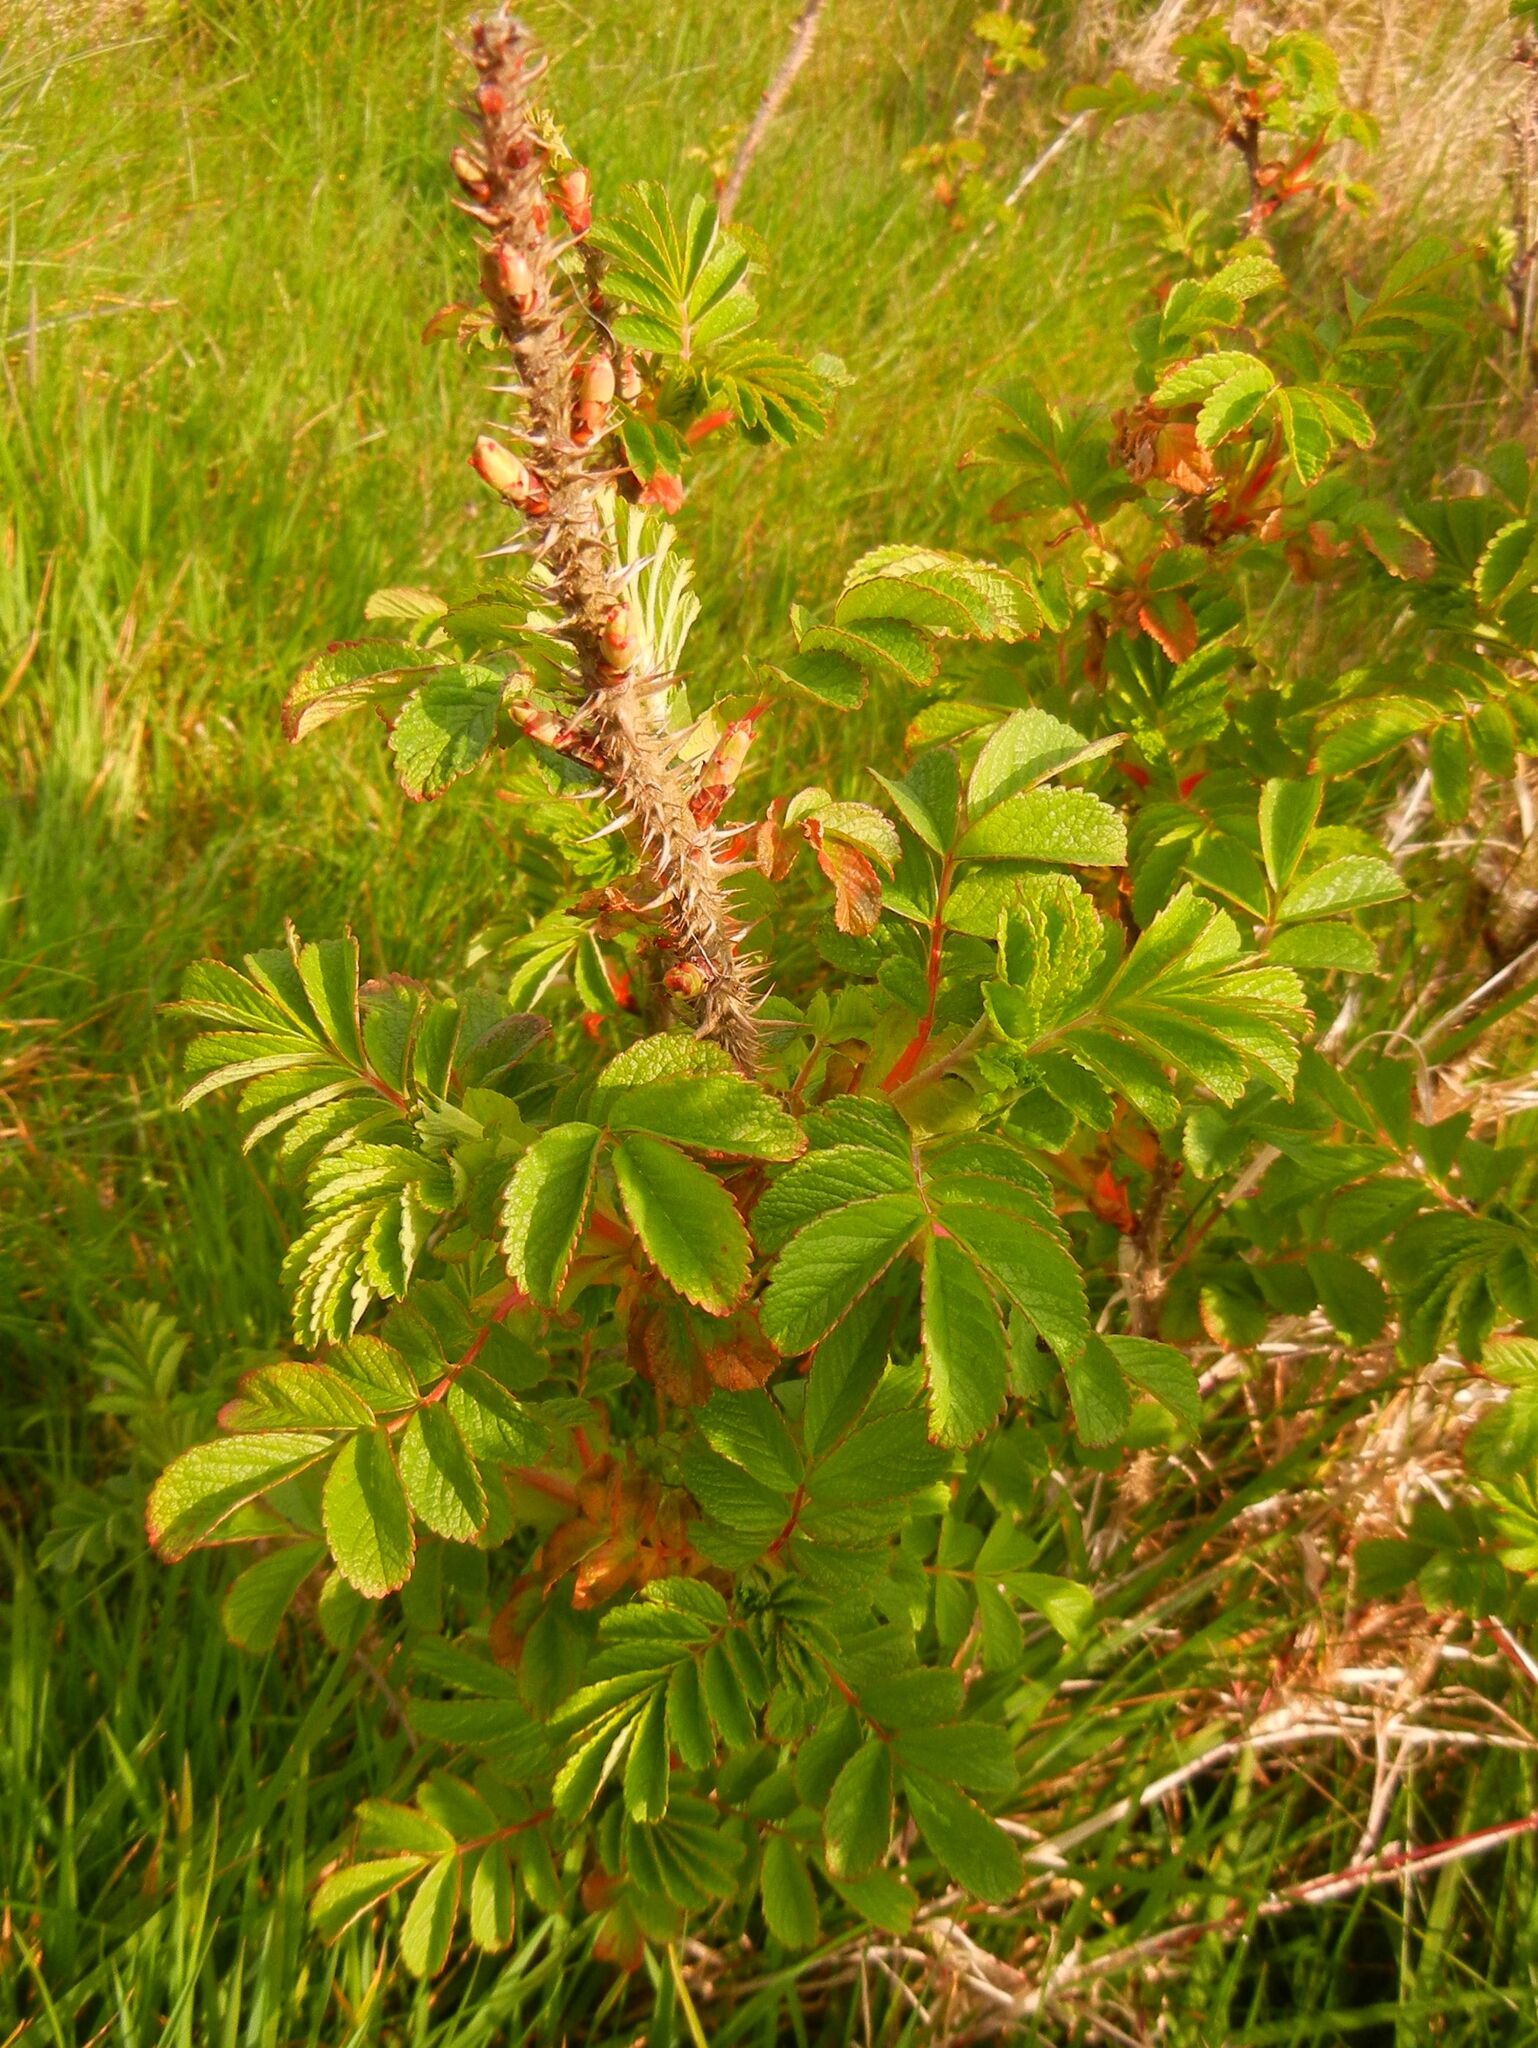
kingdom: Plantae
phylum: Tracheophyta
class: Magnoliopsida
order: Rosales
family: Rosaceae
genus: Rosa
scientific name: Rosa spinosissima
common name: Burnet rose
